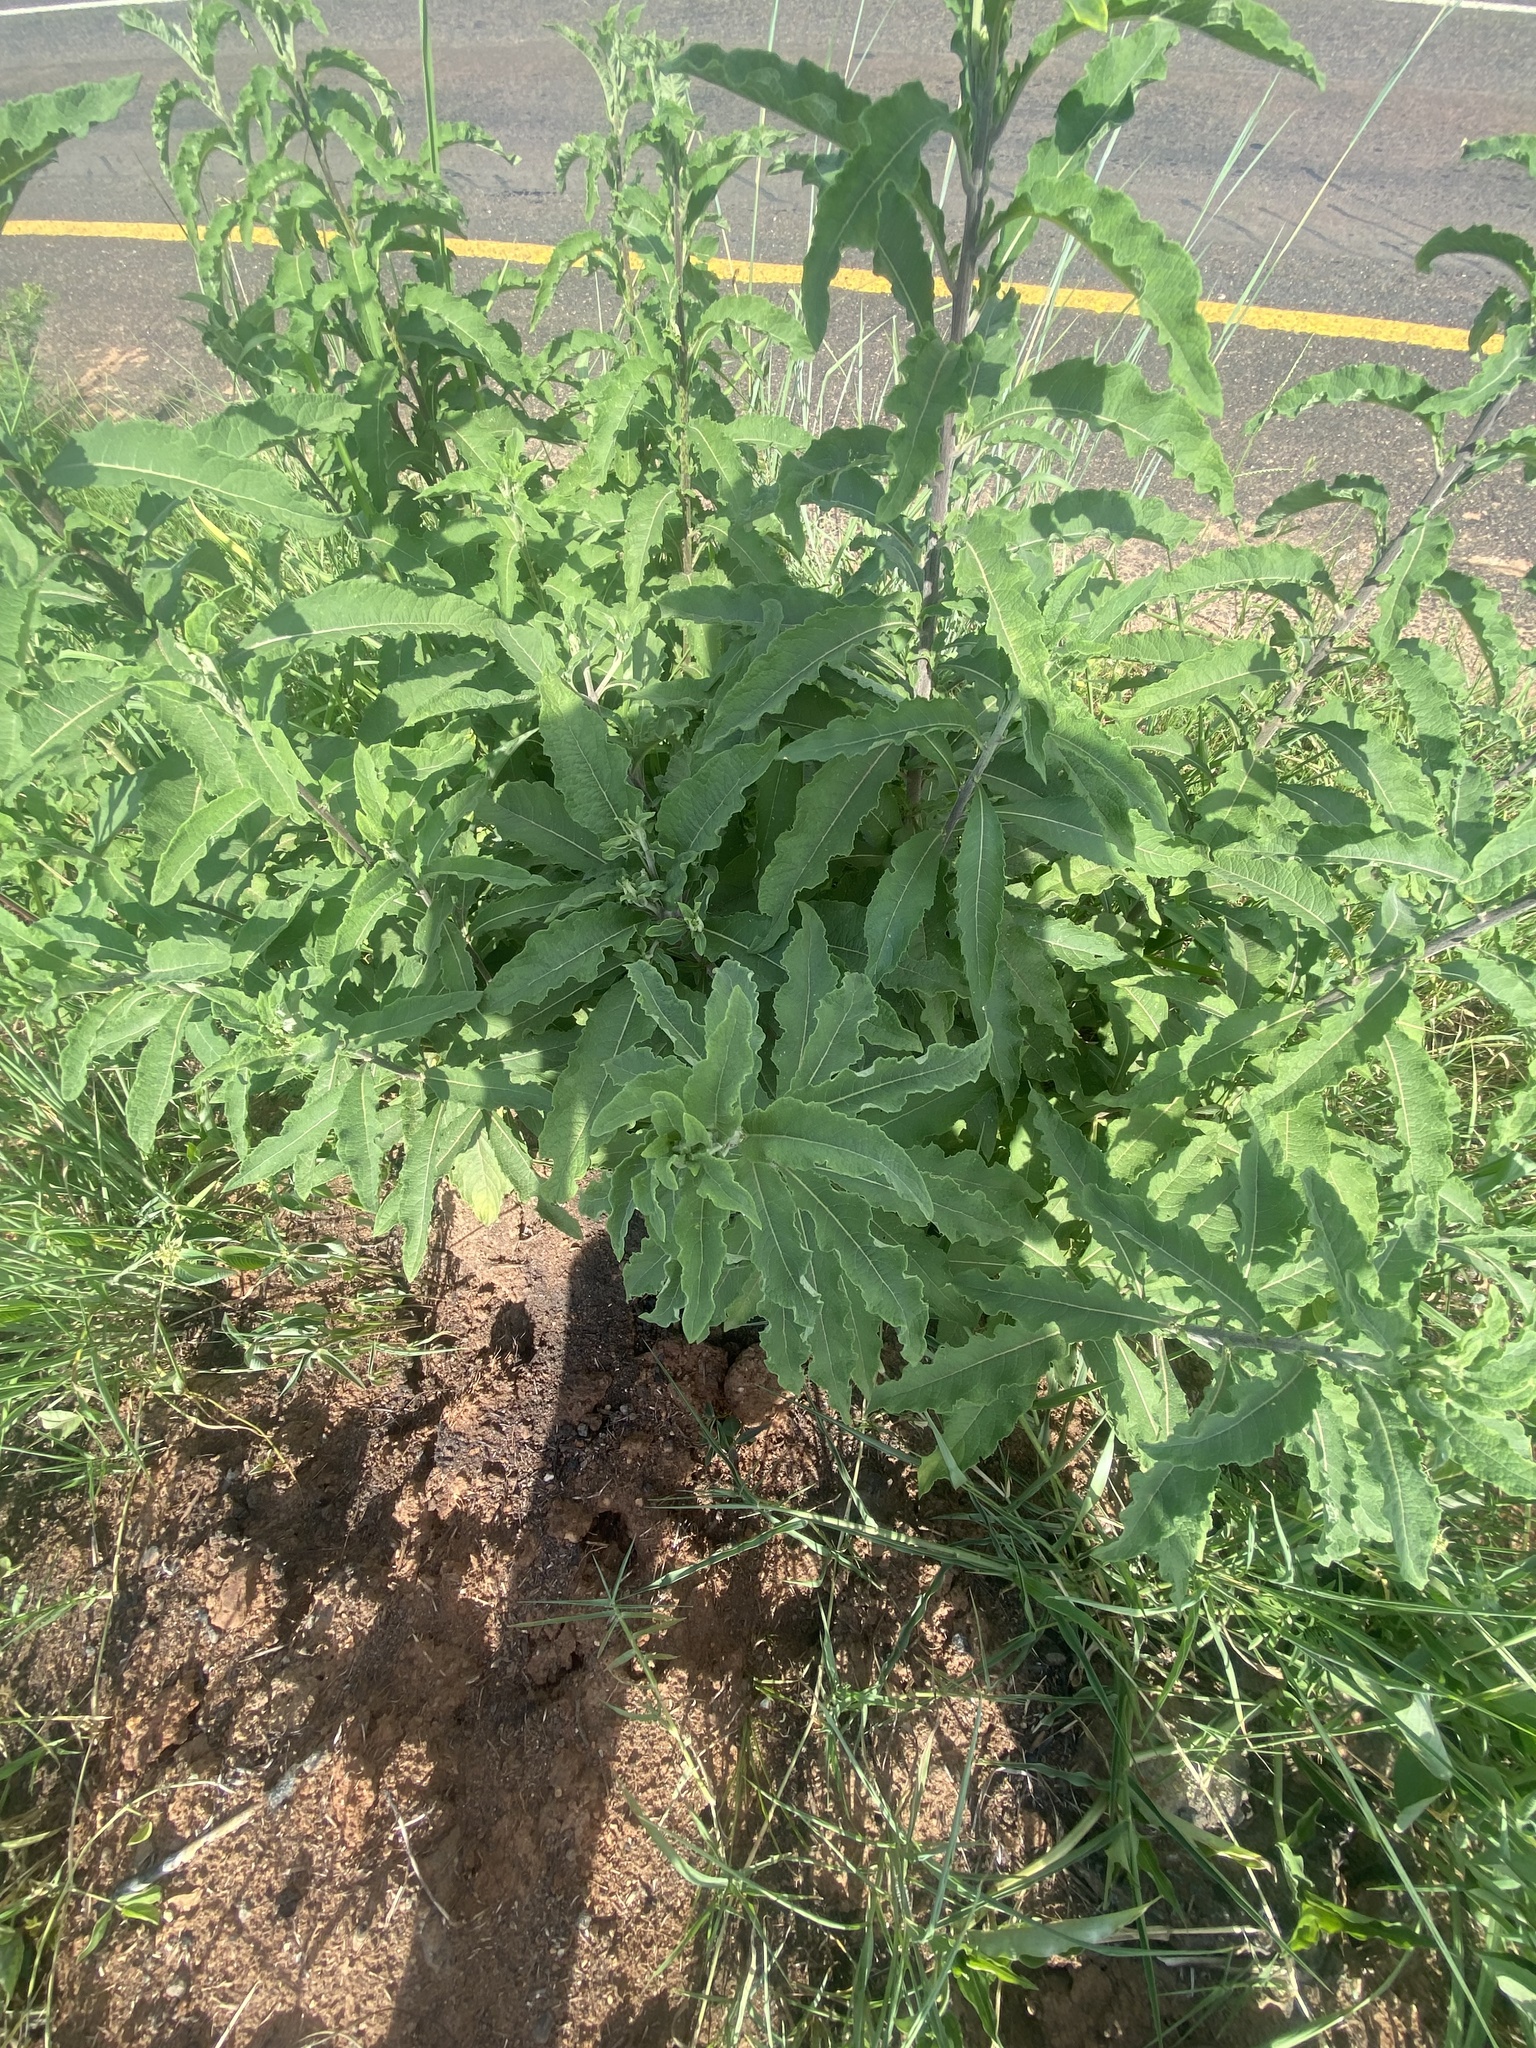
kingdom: Plantae
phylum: Tracheophyta
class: Magnoliopsida
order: Asterales
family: Asteraceae
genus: Gymnanthemum
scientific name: Gymnanthemum amygdalinum
